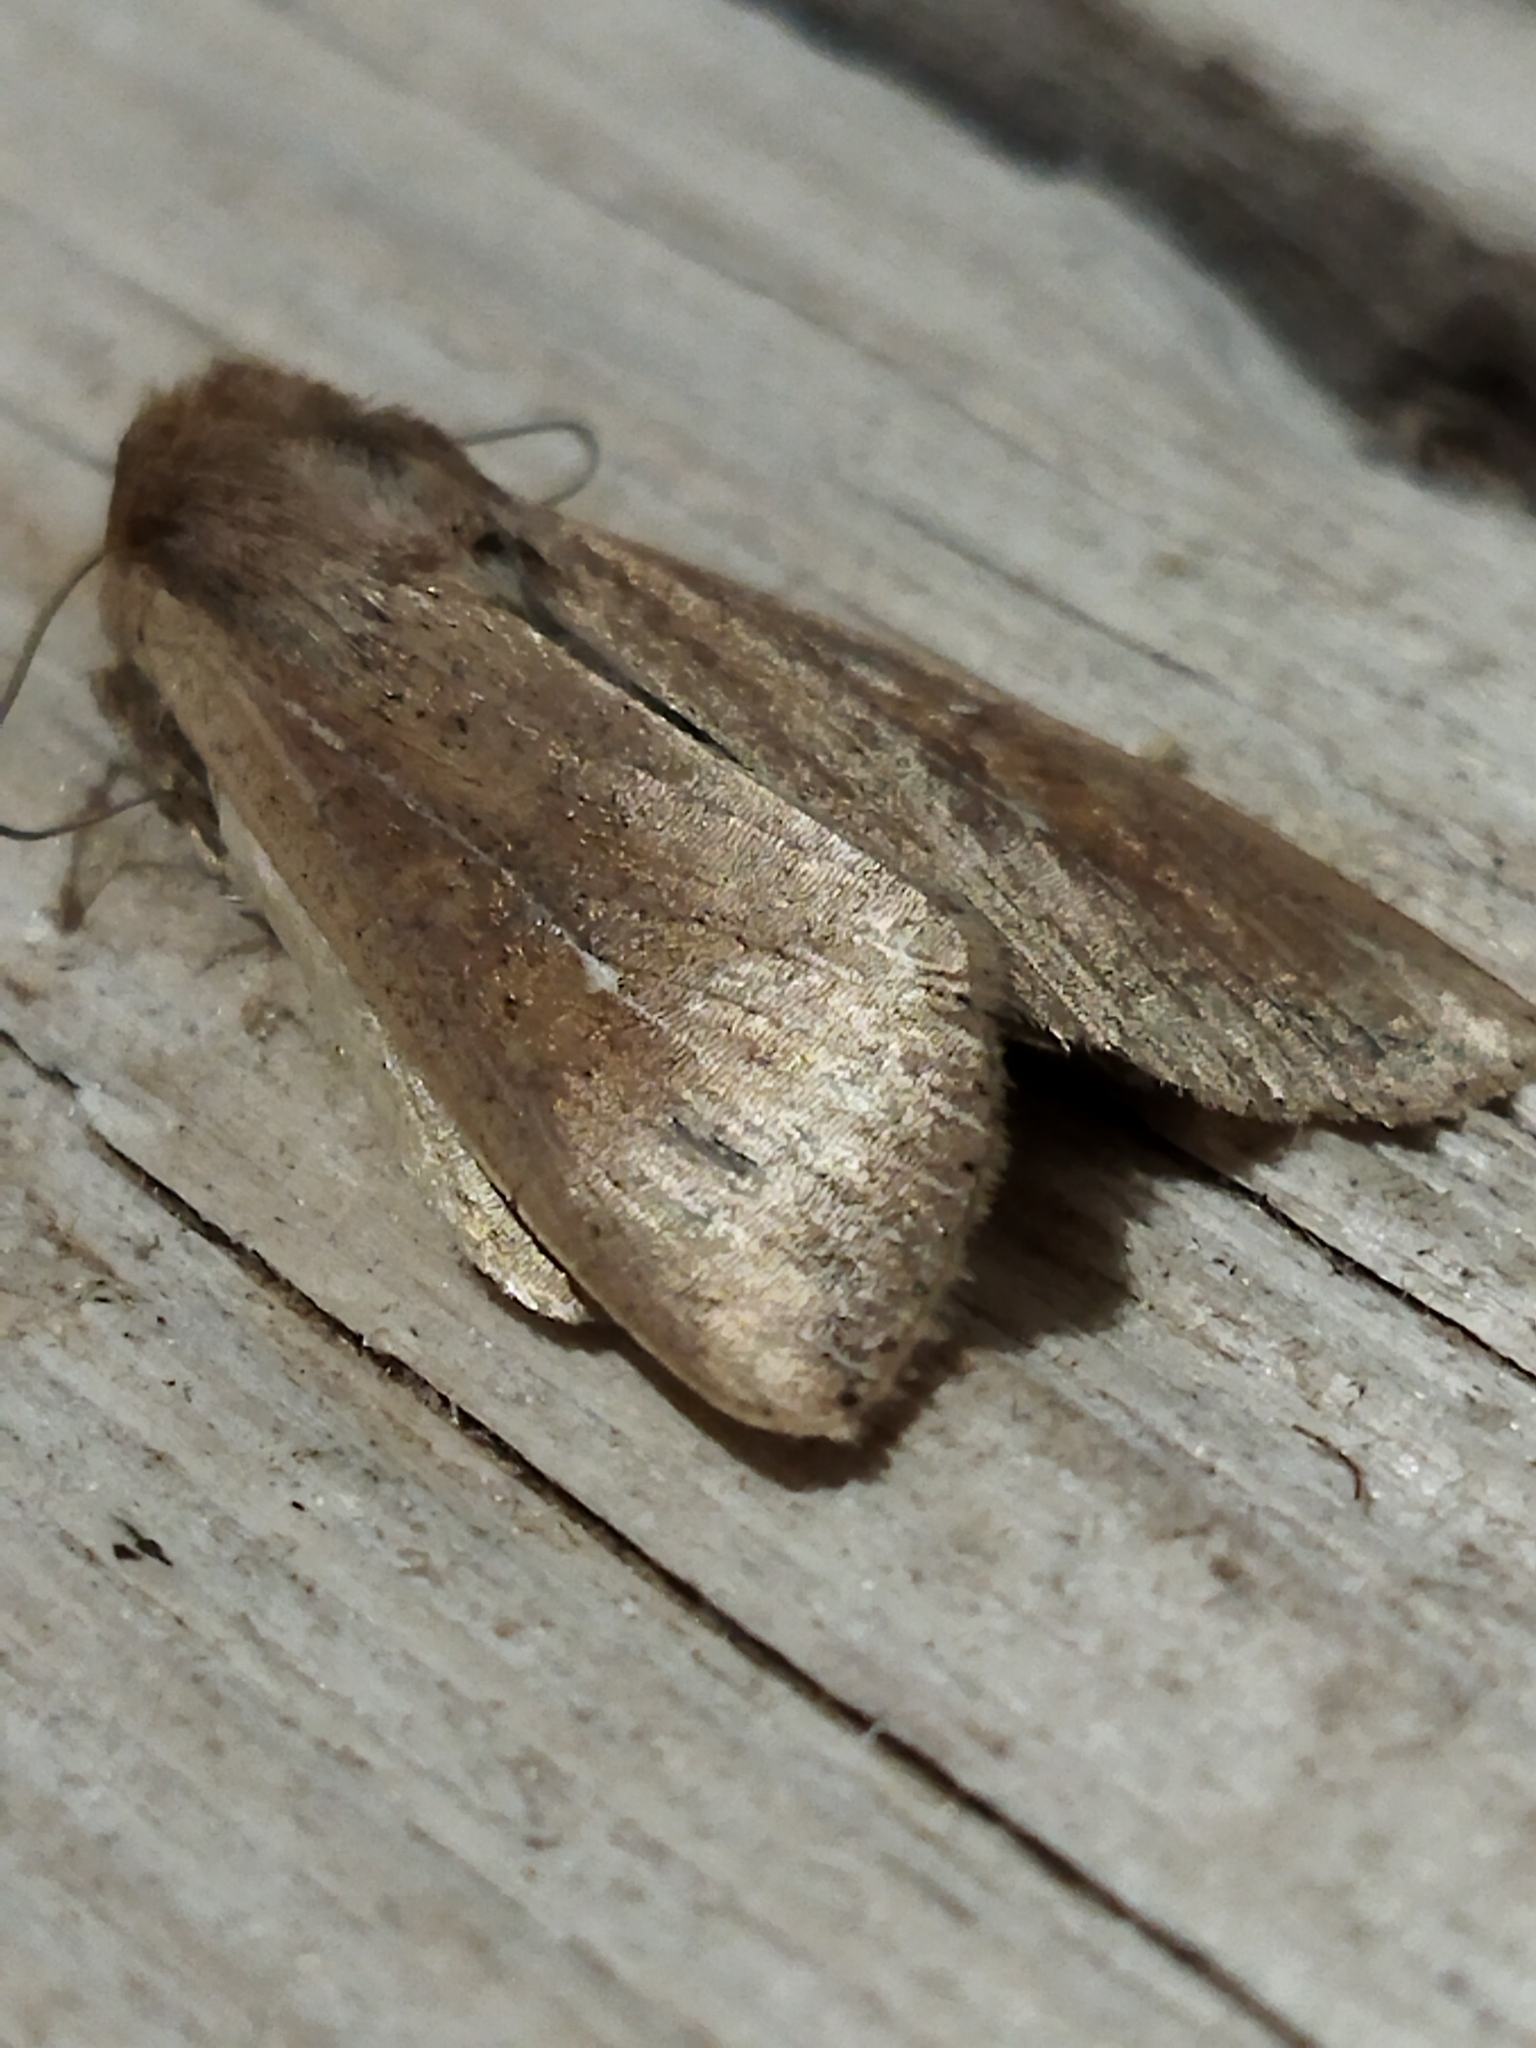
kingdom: Animalia
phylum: Arthropoda
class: Insecta
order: Lepidoptera
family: Noctuidae
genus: Mythimna
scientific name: Mythimna unipuncta
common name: White-speck
